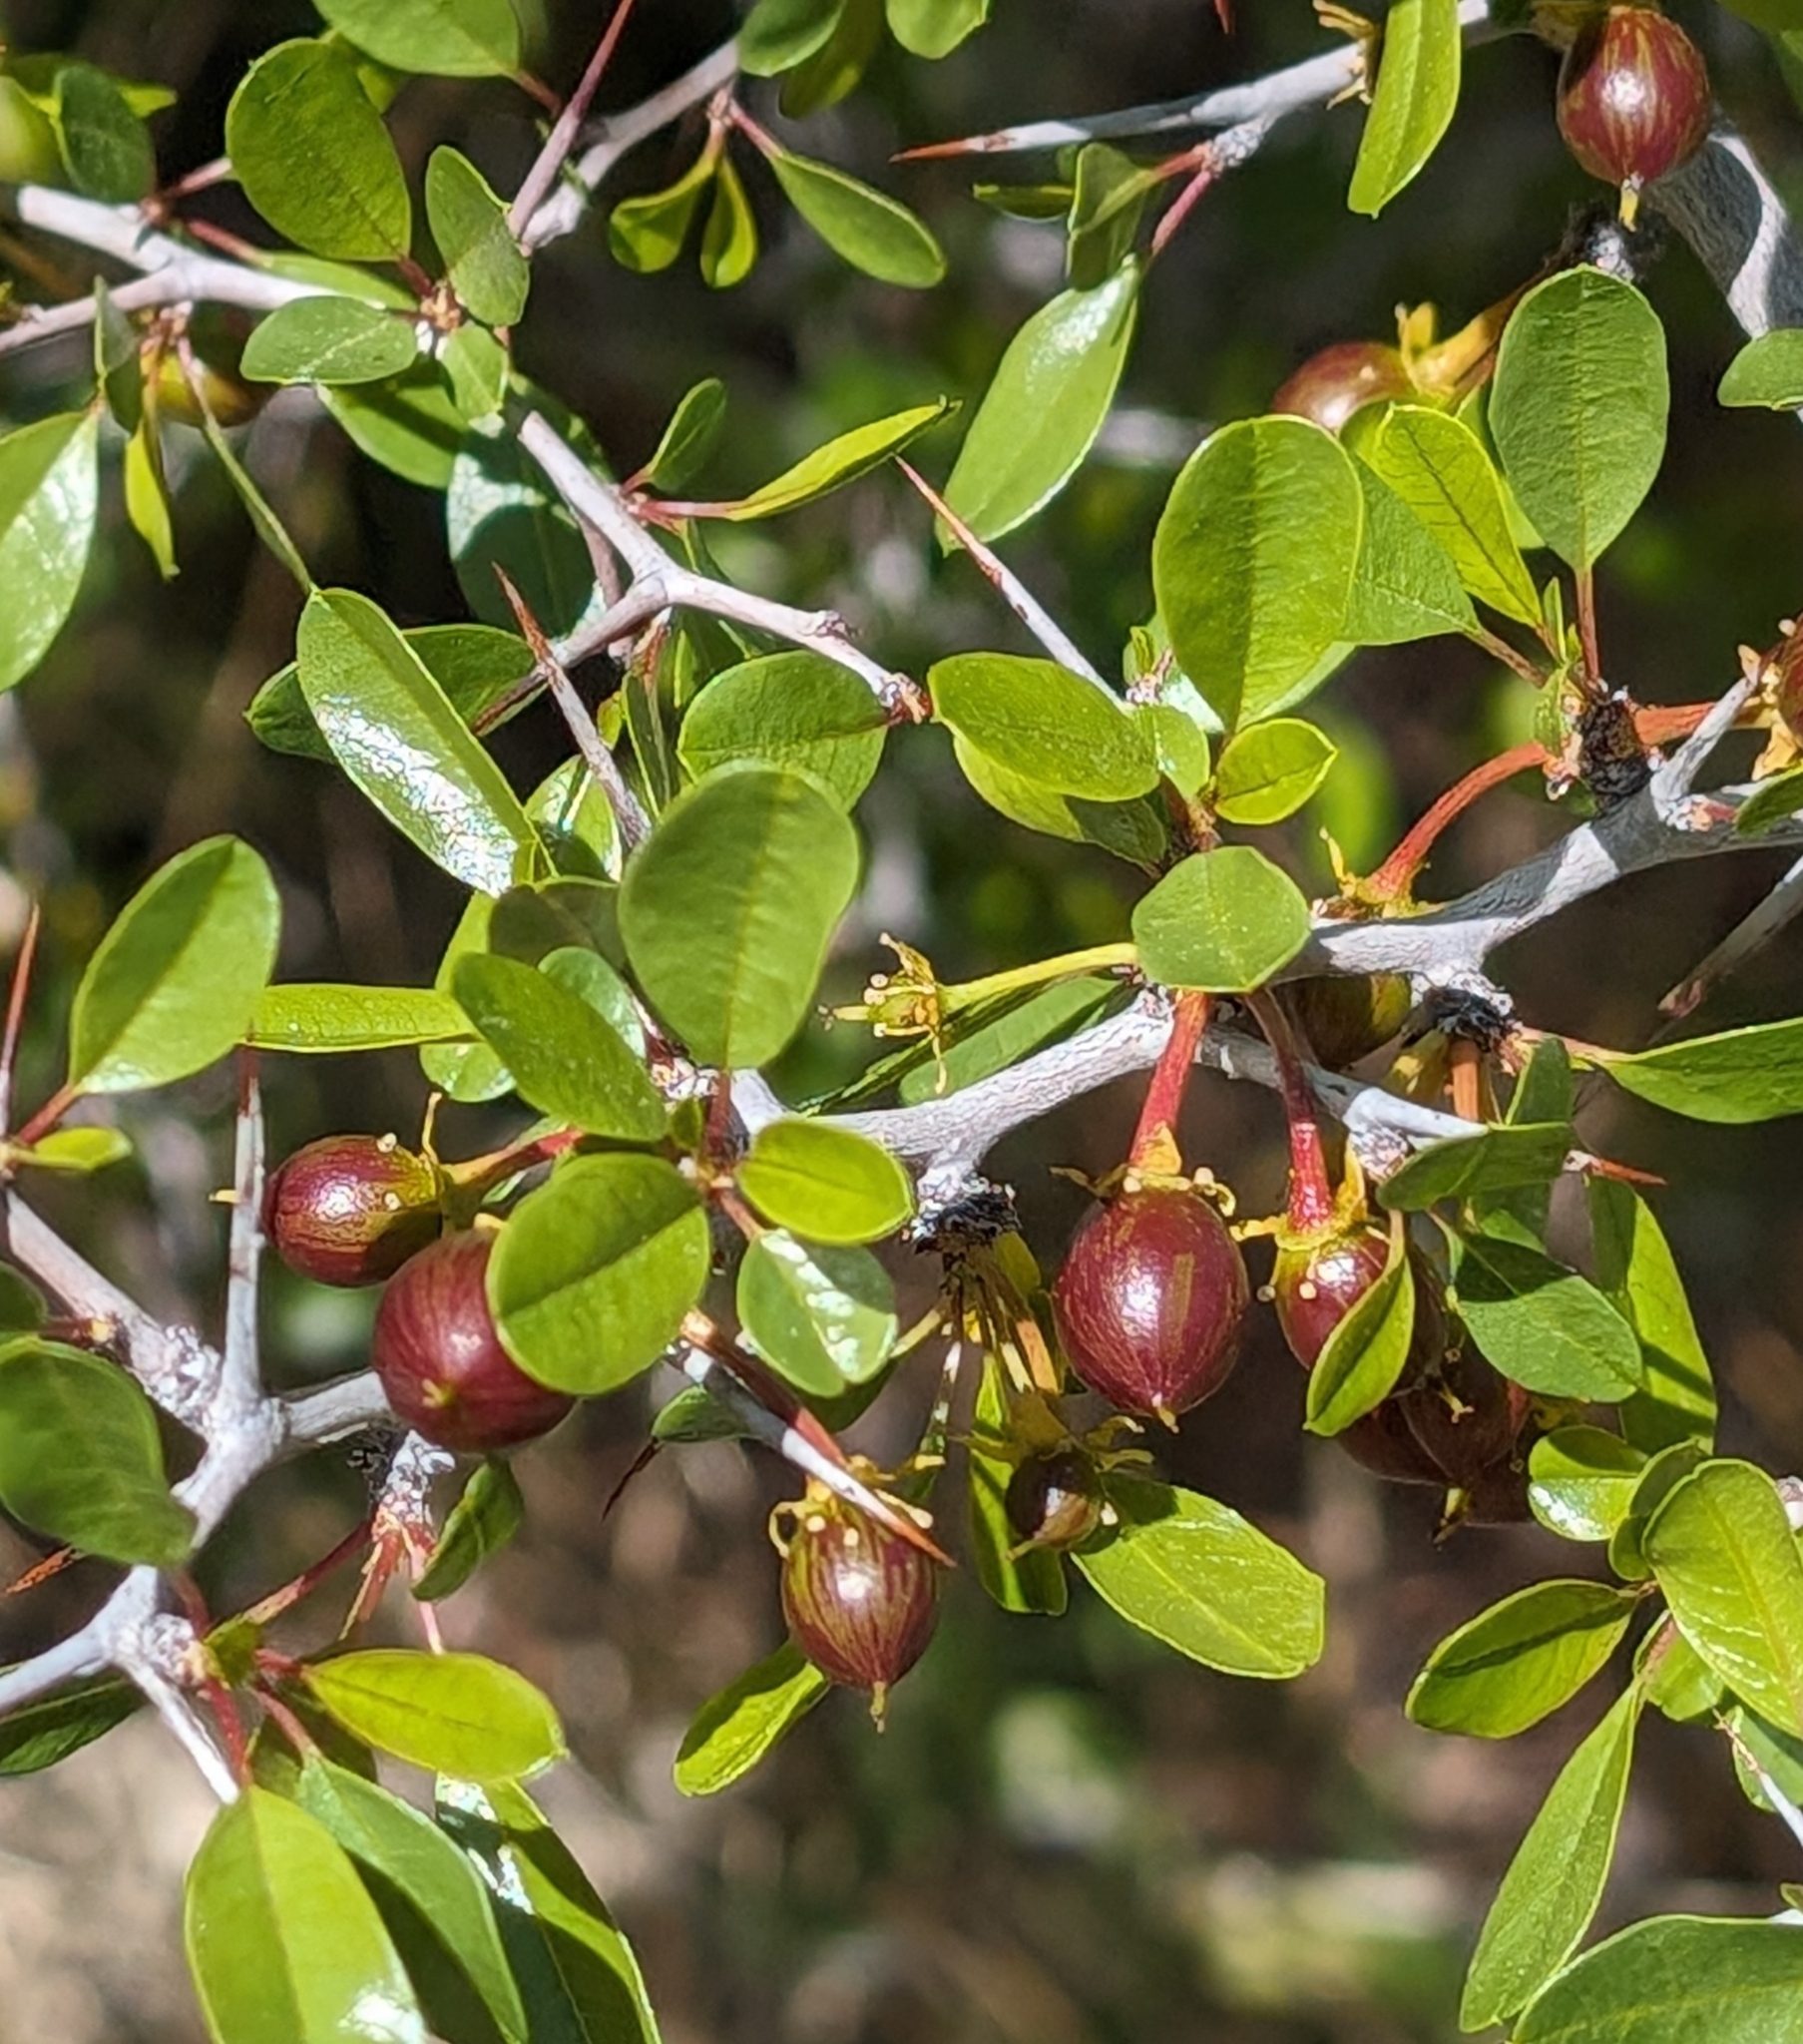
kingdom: Plantae
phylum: Tracheophyta
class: Magnoliopsida
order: Rosales
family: Rhamnaceae
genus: Pseudoziziphus
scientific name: Pseudoziziphus parryi
